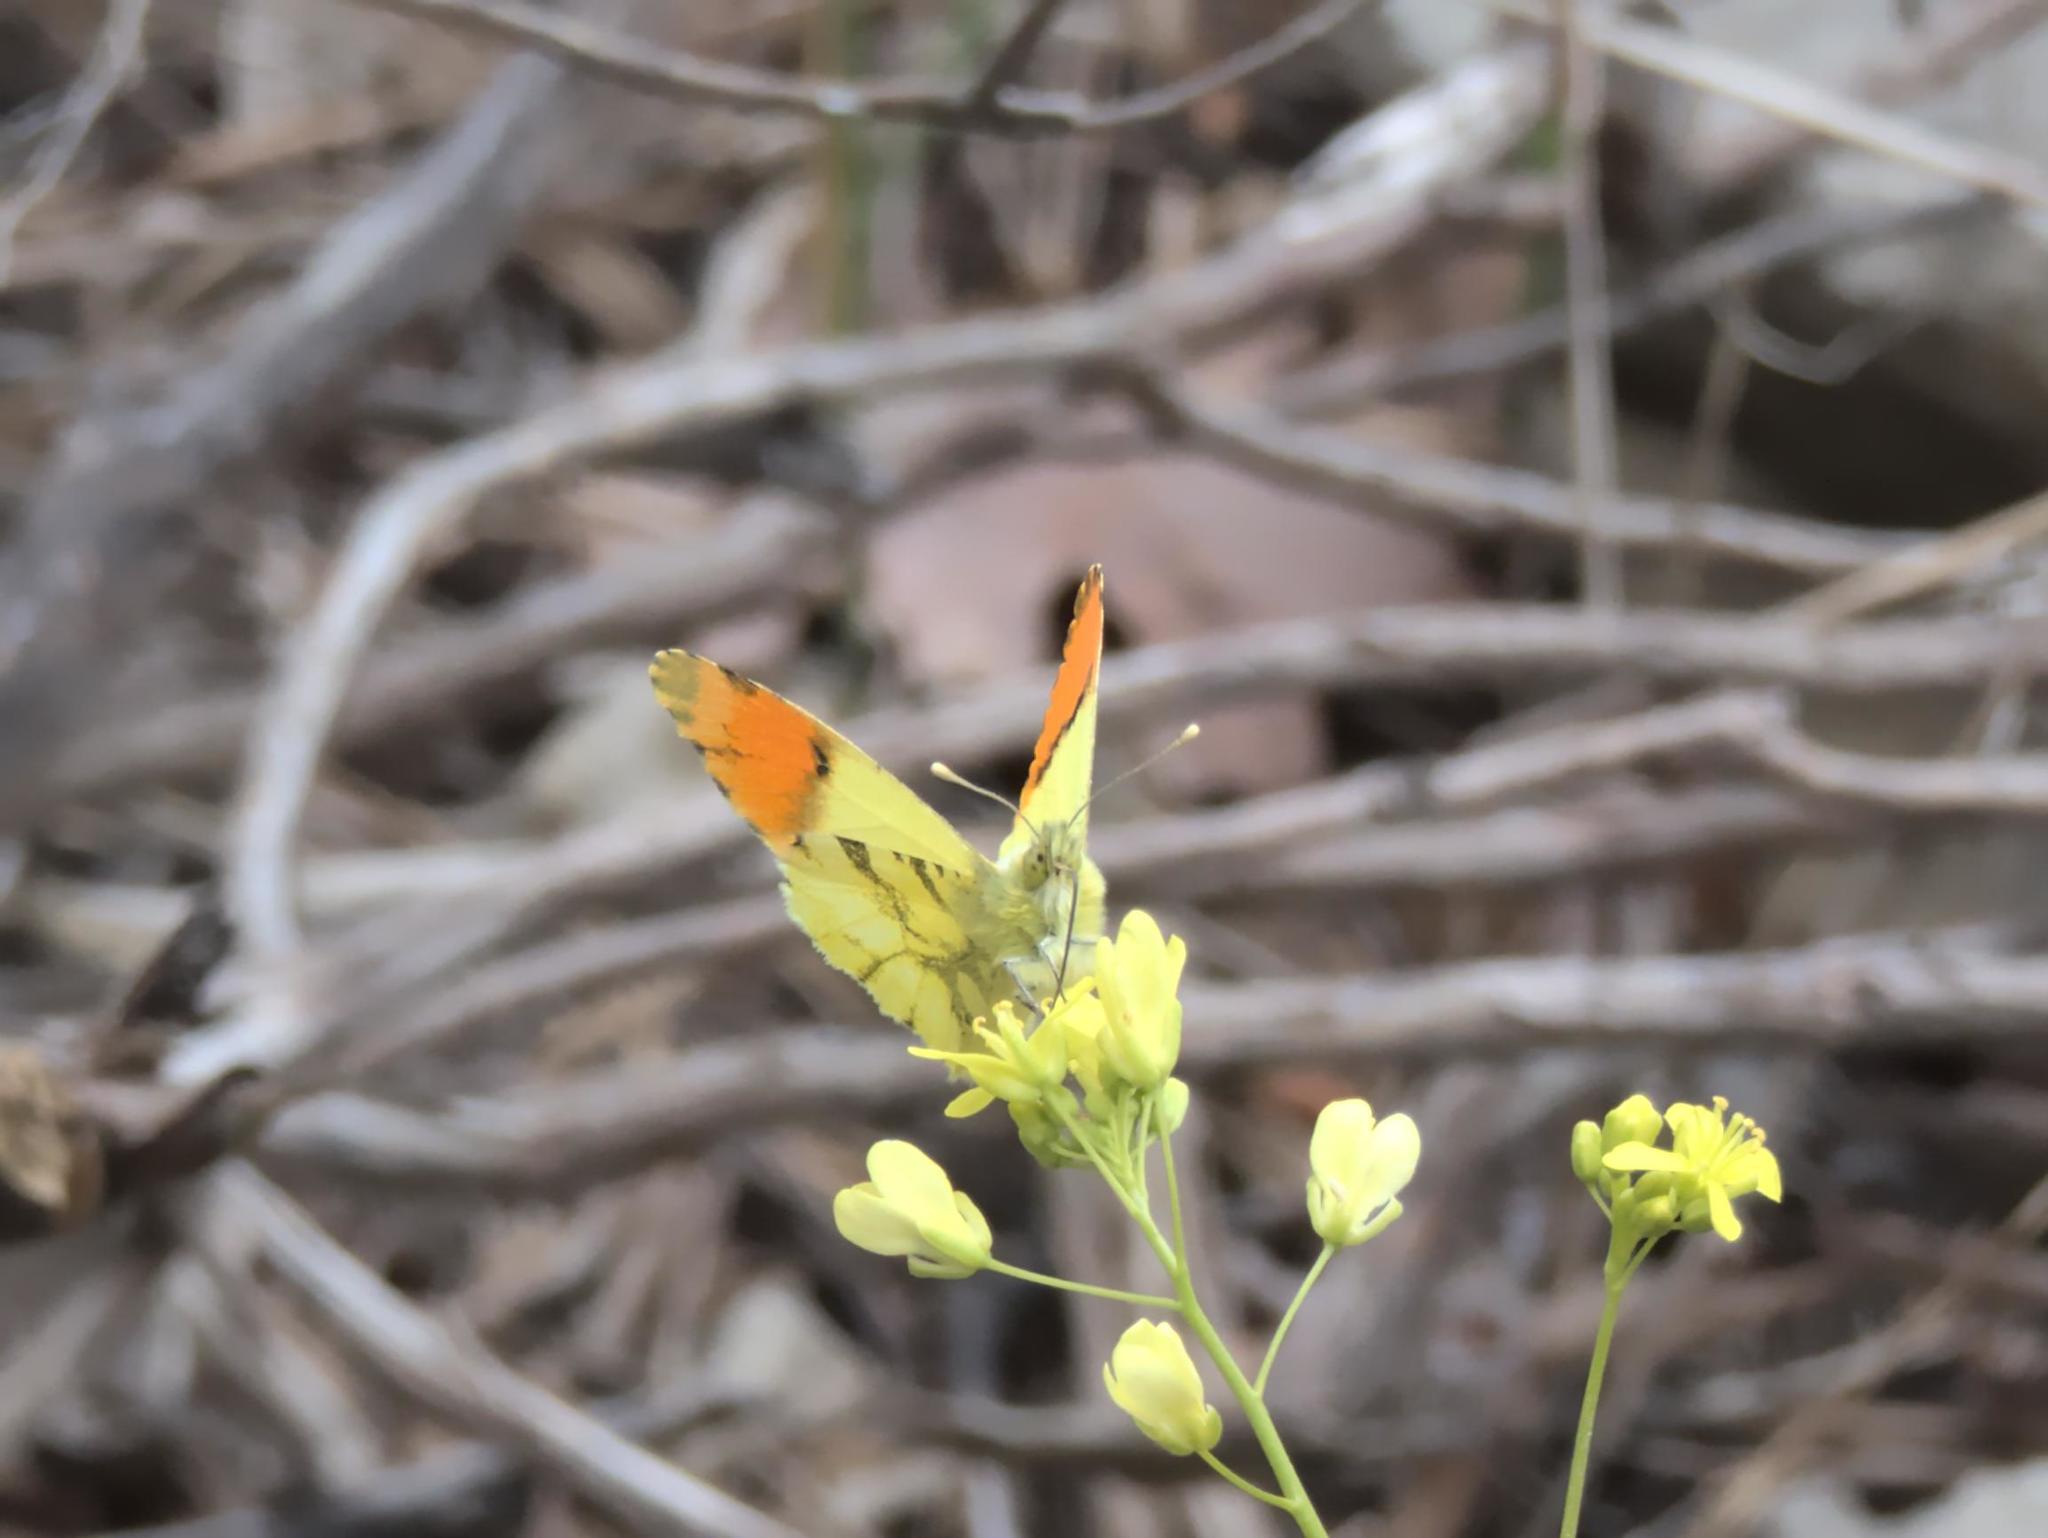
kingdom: Animalia
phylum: Arthropoda
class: Insecta
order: Lepidoptera
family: Pieridae
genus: Anthocharis
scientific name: Anthocharis euphenoides
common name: Provence orange-tip
